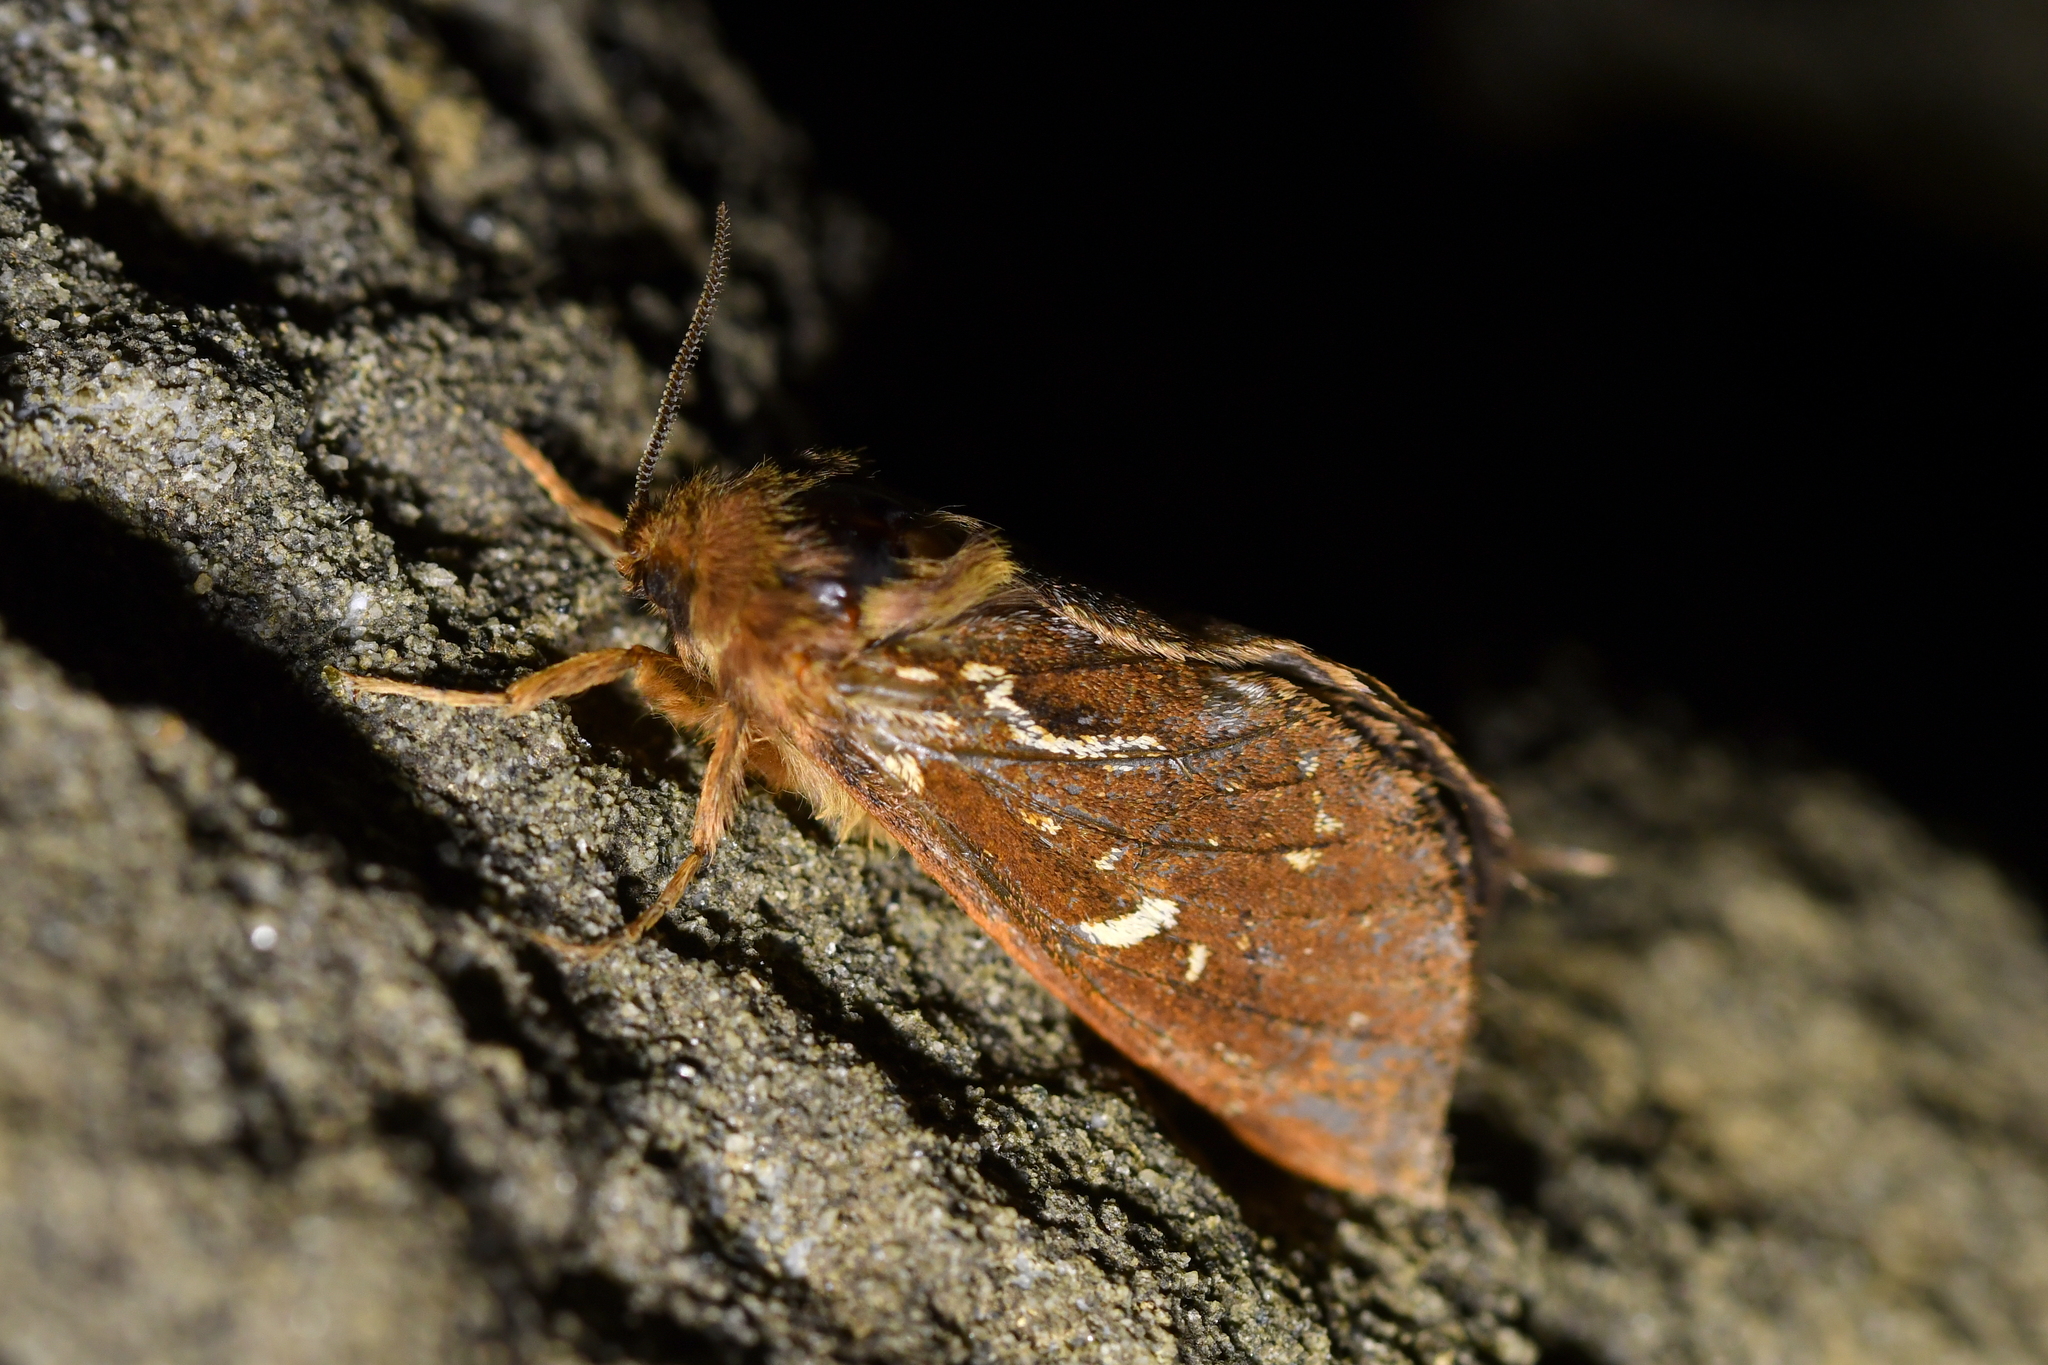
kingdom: Animalia
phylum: Arthropoda
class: Insecta
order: Lepidoptera
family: Hepialidae
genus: Dioxycanus
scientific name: Dioxycanus fusca
